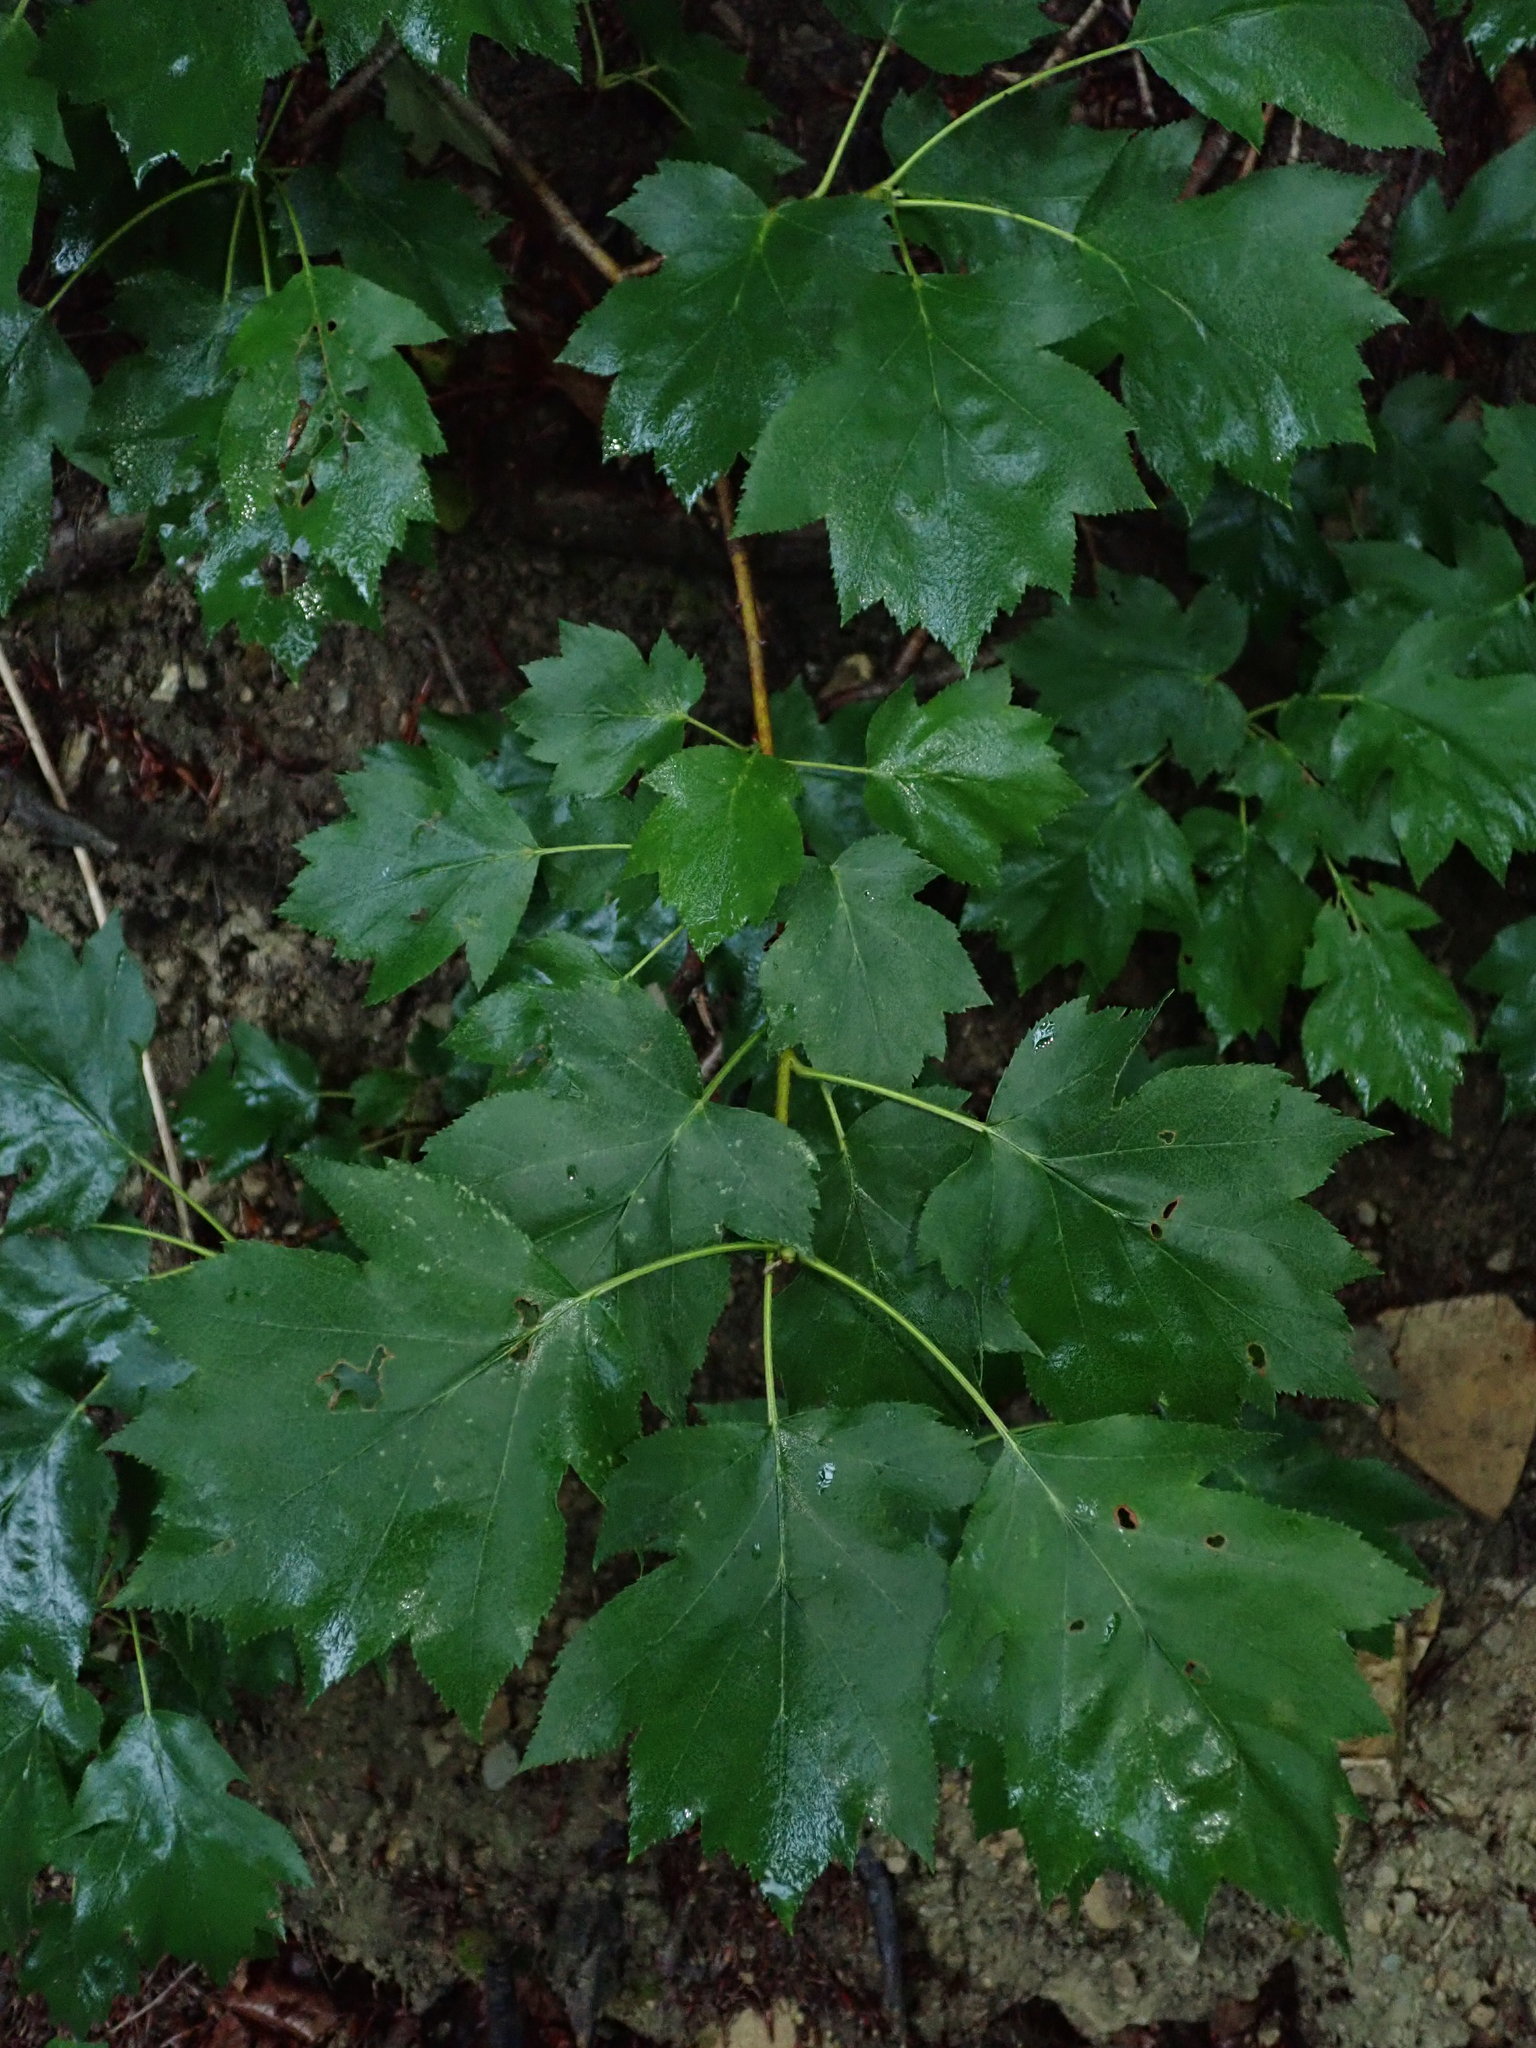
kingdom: Plantae
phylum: Tracheophyta
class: Magnoliopsida
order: Rosales
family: Rosaceae
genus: Torminalis
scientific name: Torminalis glaberrima
